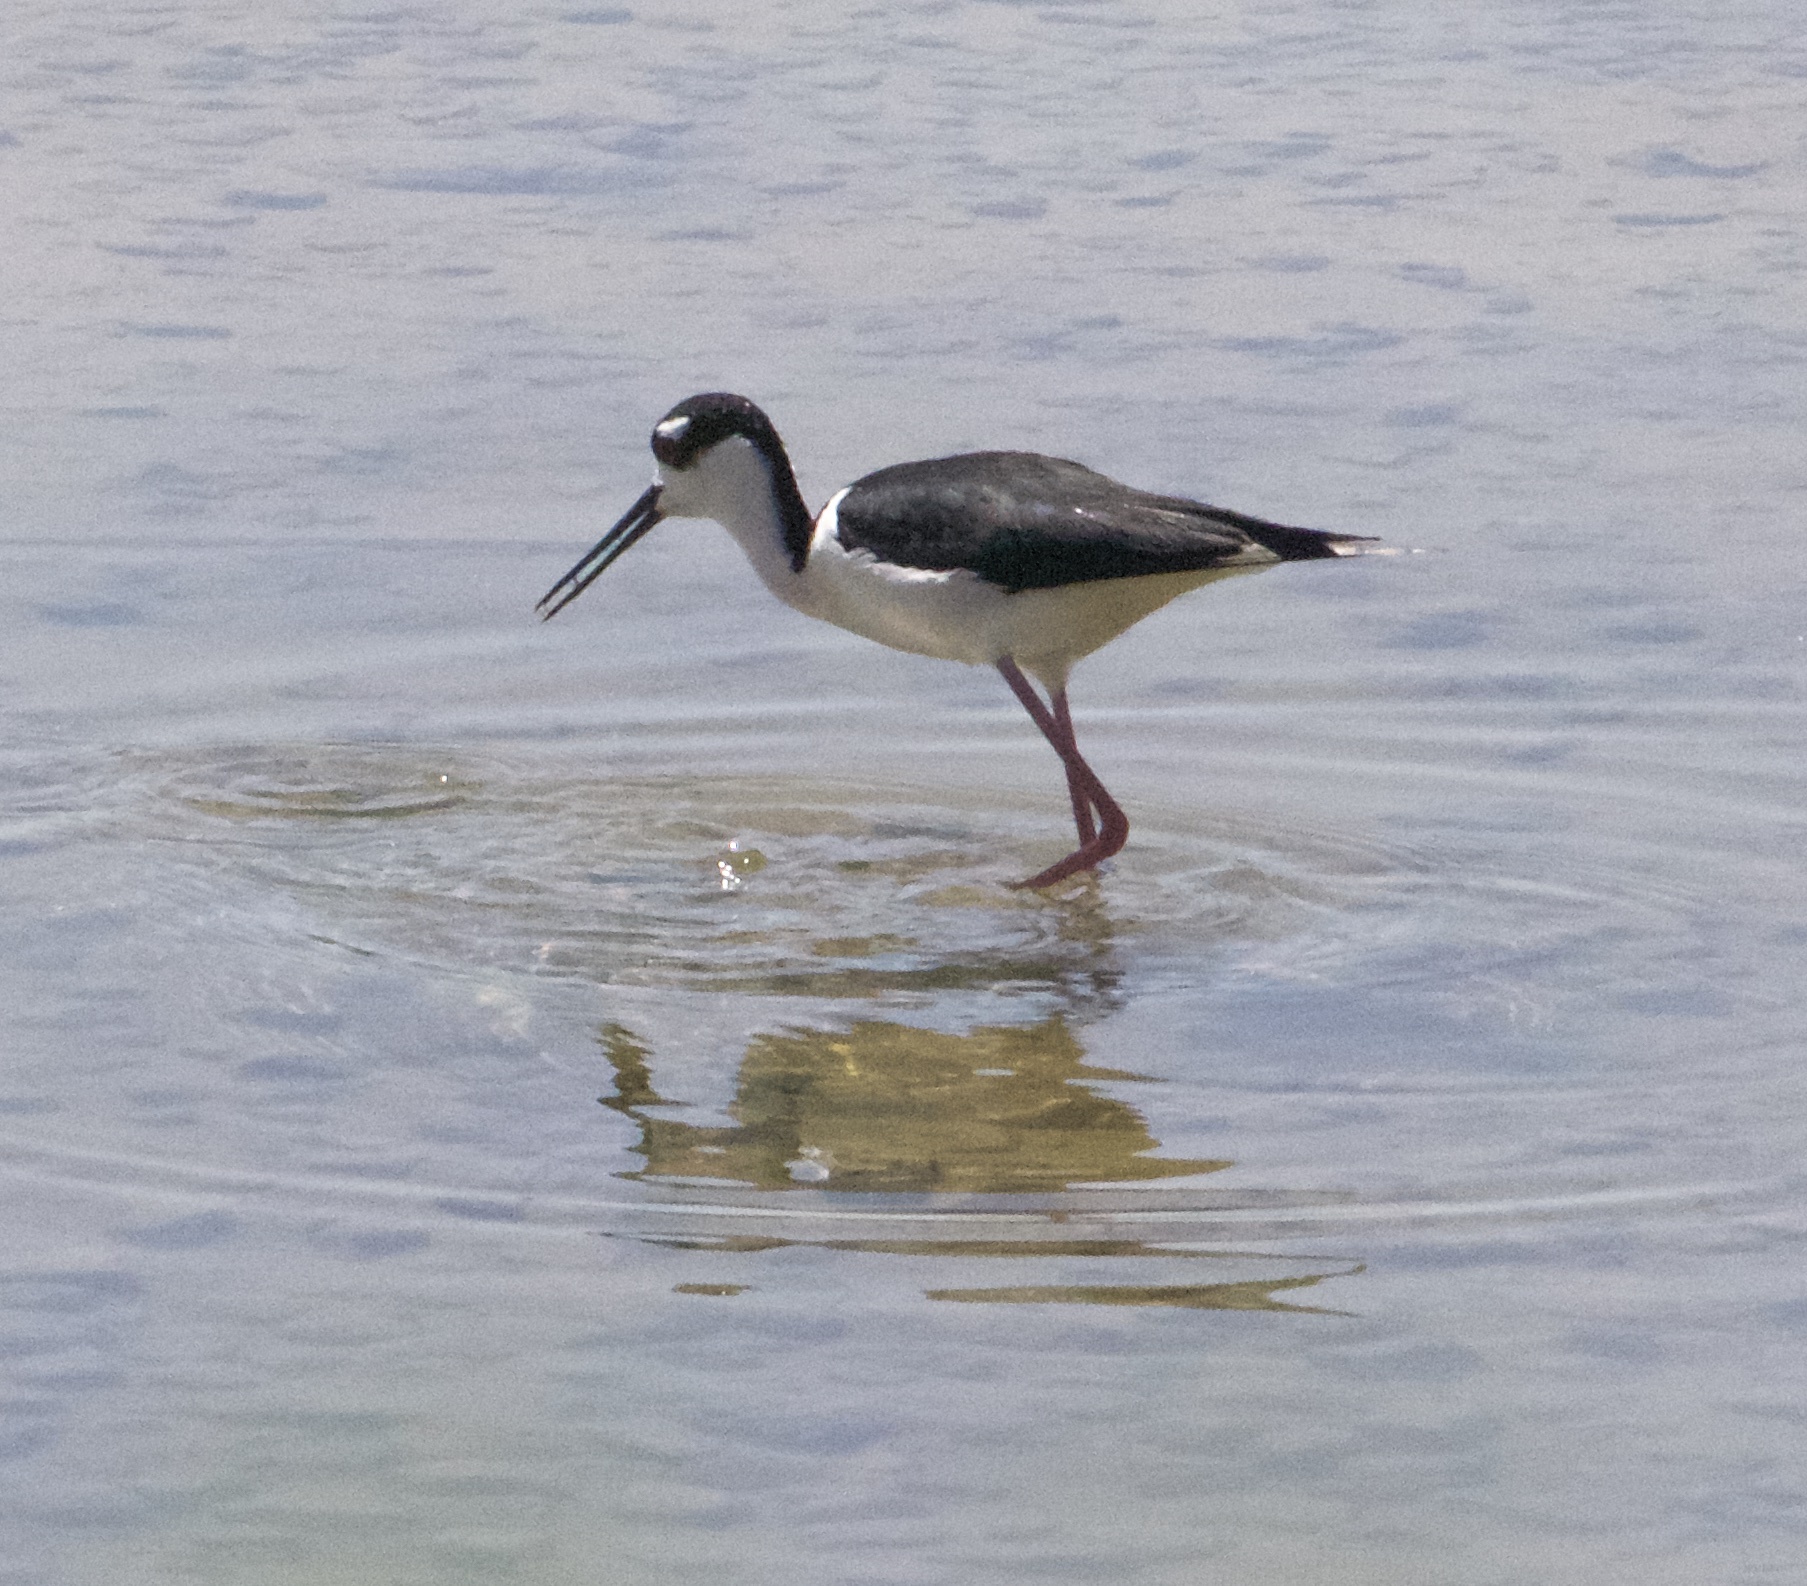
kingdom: Animalia
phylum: Chordata
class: Aves
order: Charadriiformes
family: Recurvirostridae
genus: Himantopus
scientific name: Himantopus mexicanus
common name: Black-necked stilt
